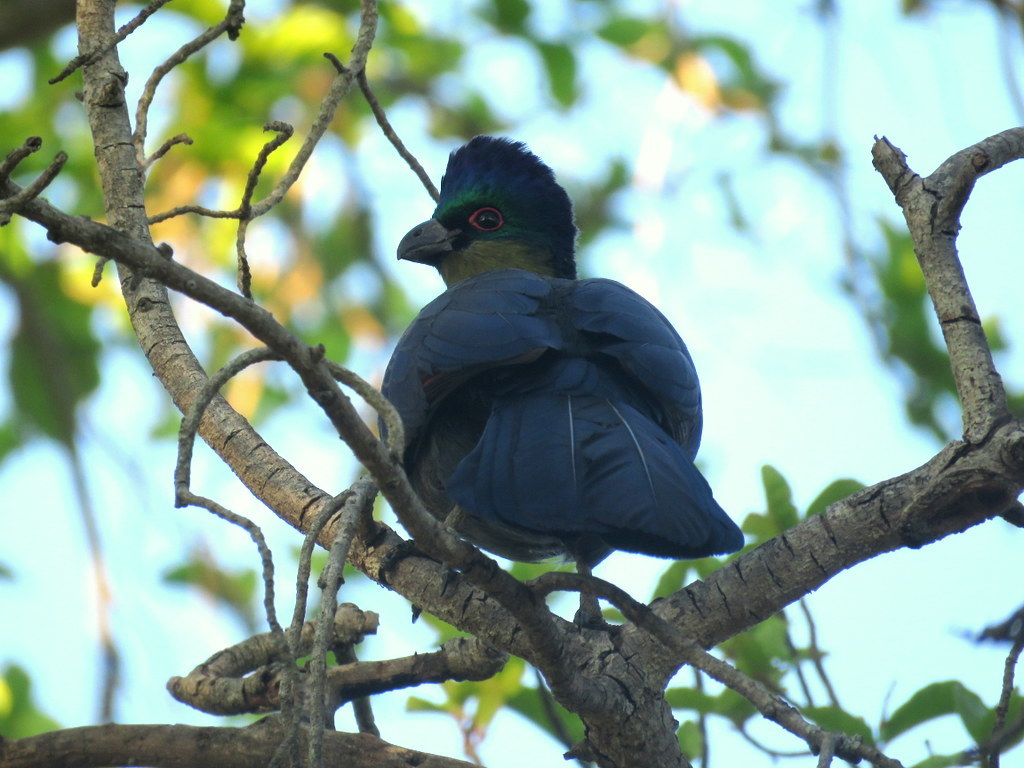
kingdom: Animalia
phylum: Chordata
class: Aves
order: Musophagiformes
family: Musophagidae
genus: Tauraco
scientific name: Tauraco porphyreolophus
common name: Purple-crested turaco
